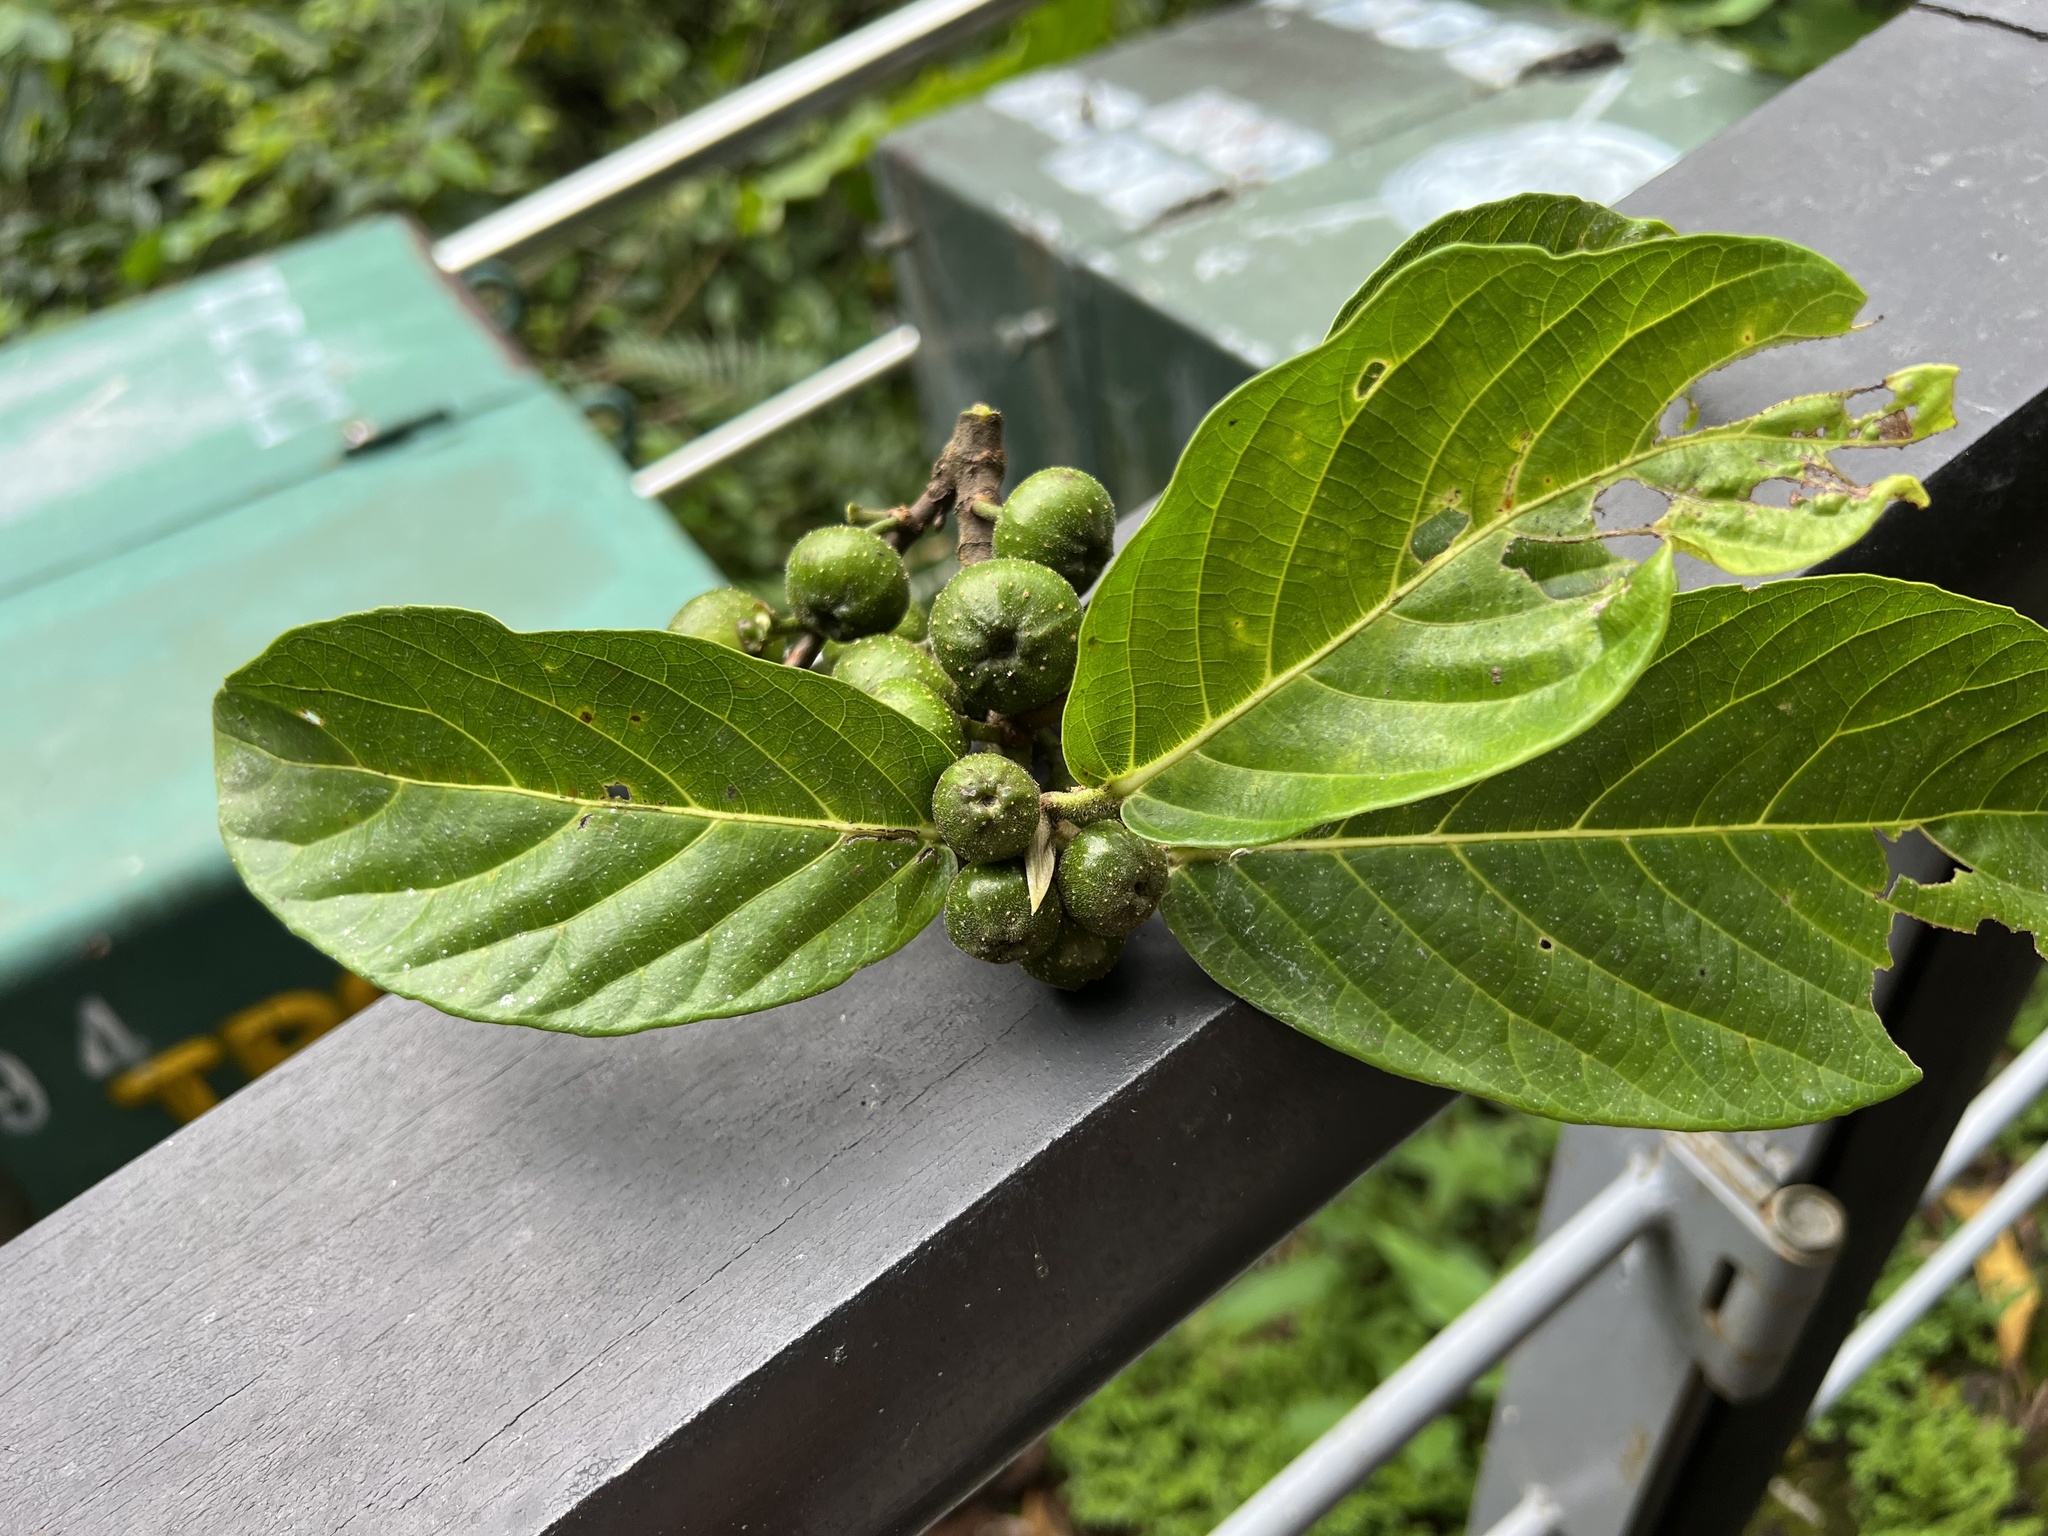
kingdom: Plantae
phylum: Tracheophyta
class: Magnoliopsida
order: Rosales
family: Moraceae
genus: Ficus
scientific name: Ficus septica
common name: Septic fig
